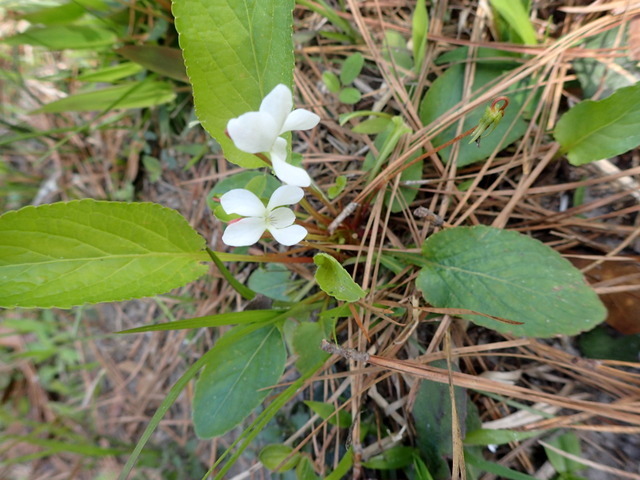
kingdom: Plantae
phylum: Tracheophyta
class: Magnoliopsida
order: Malpighiales
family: Violaceae
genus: Viola
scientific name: Viola primulifolia
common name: Primrose-leaf violet
